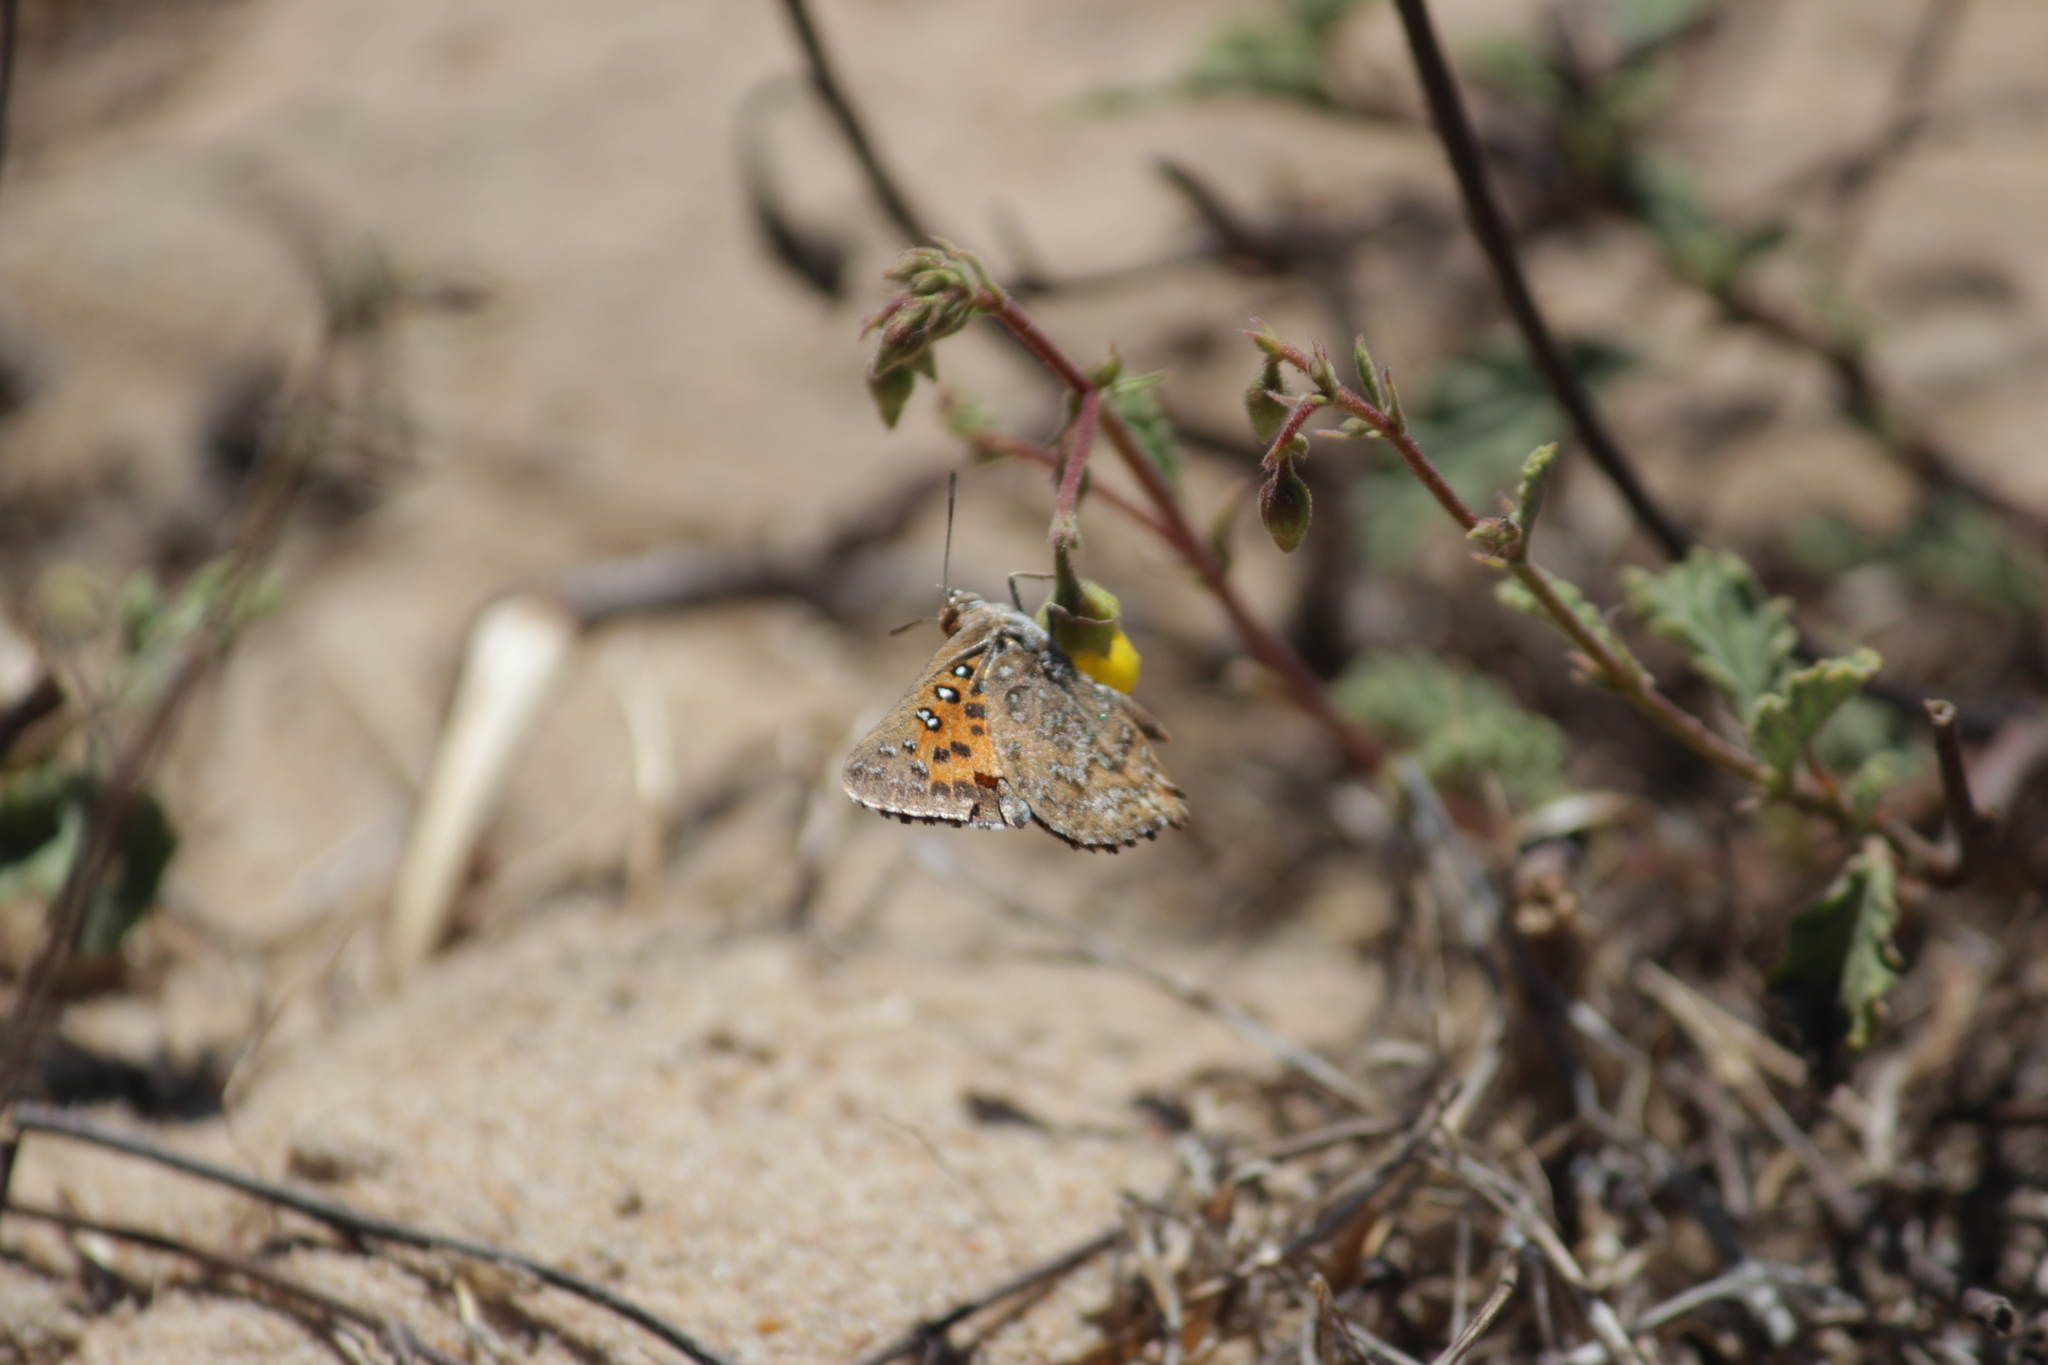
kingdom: Animalia
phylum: Arthropoda
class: Insecta
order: Lepidoptera
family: Lycaenidae
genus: Aloeides
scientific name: Aloeides thyra
